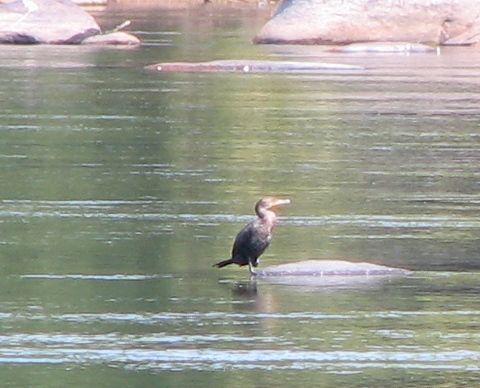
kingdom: Animalia
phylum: Chordata
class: Aves
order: Suliformes
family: Phalacrocoracidae
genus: Phalacrocorax
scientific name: Phalacrocorax auritus
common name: Double-crested cormorant
